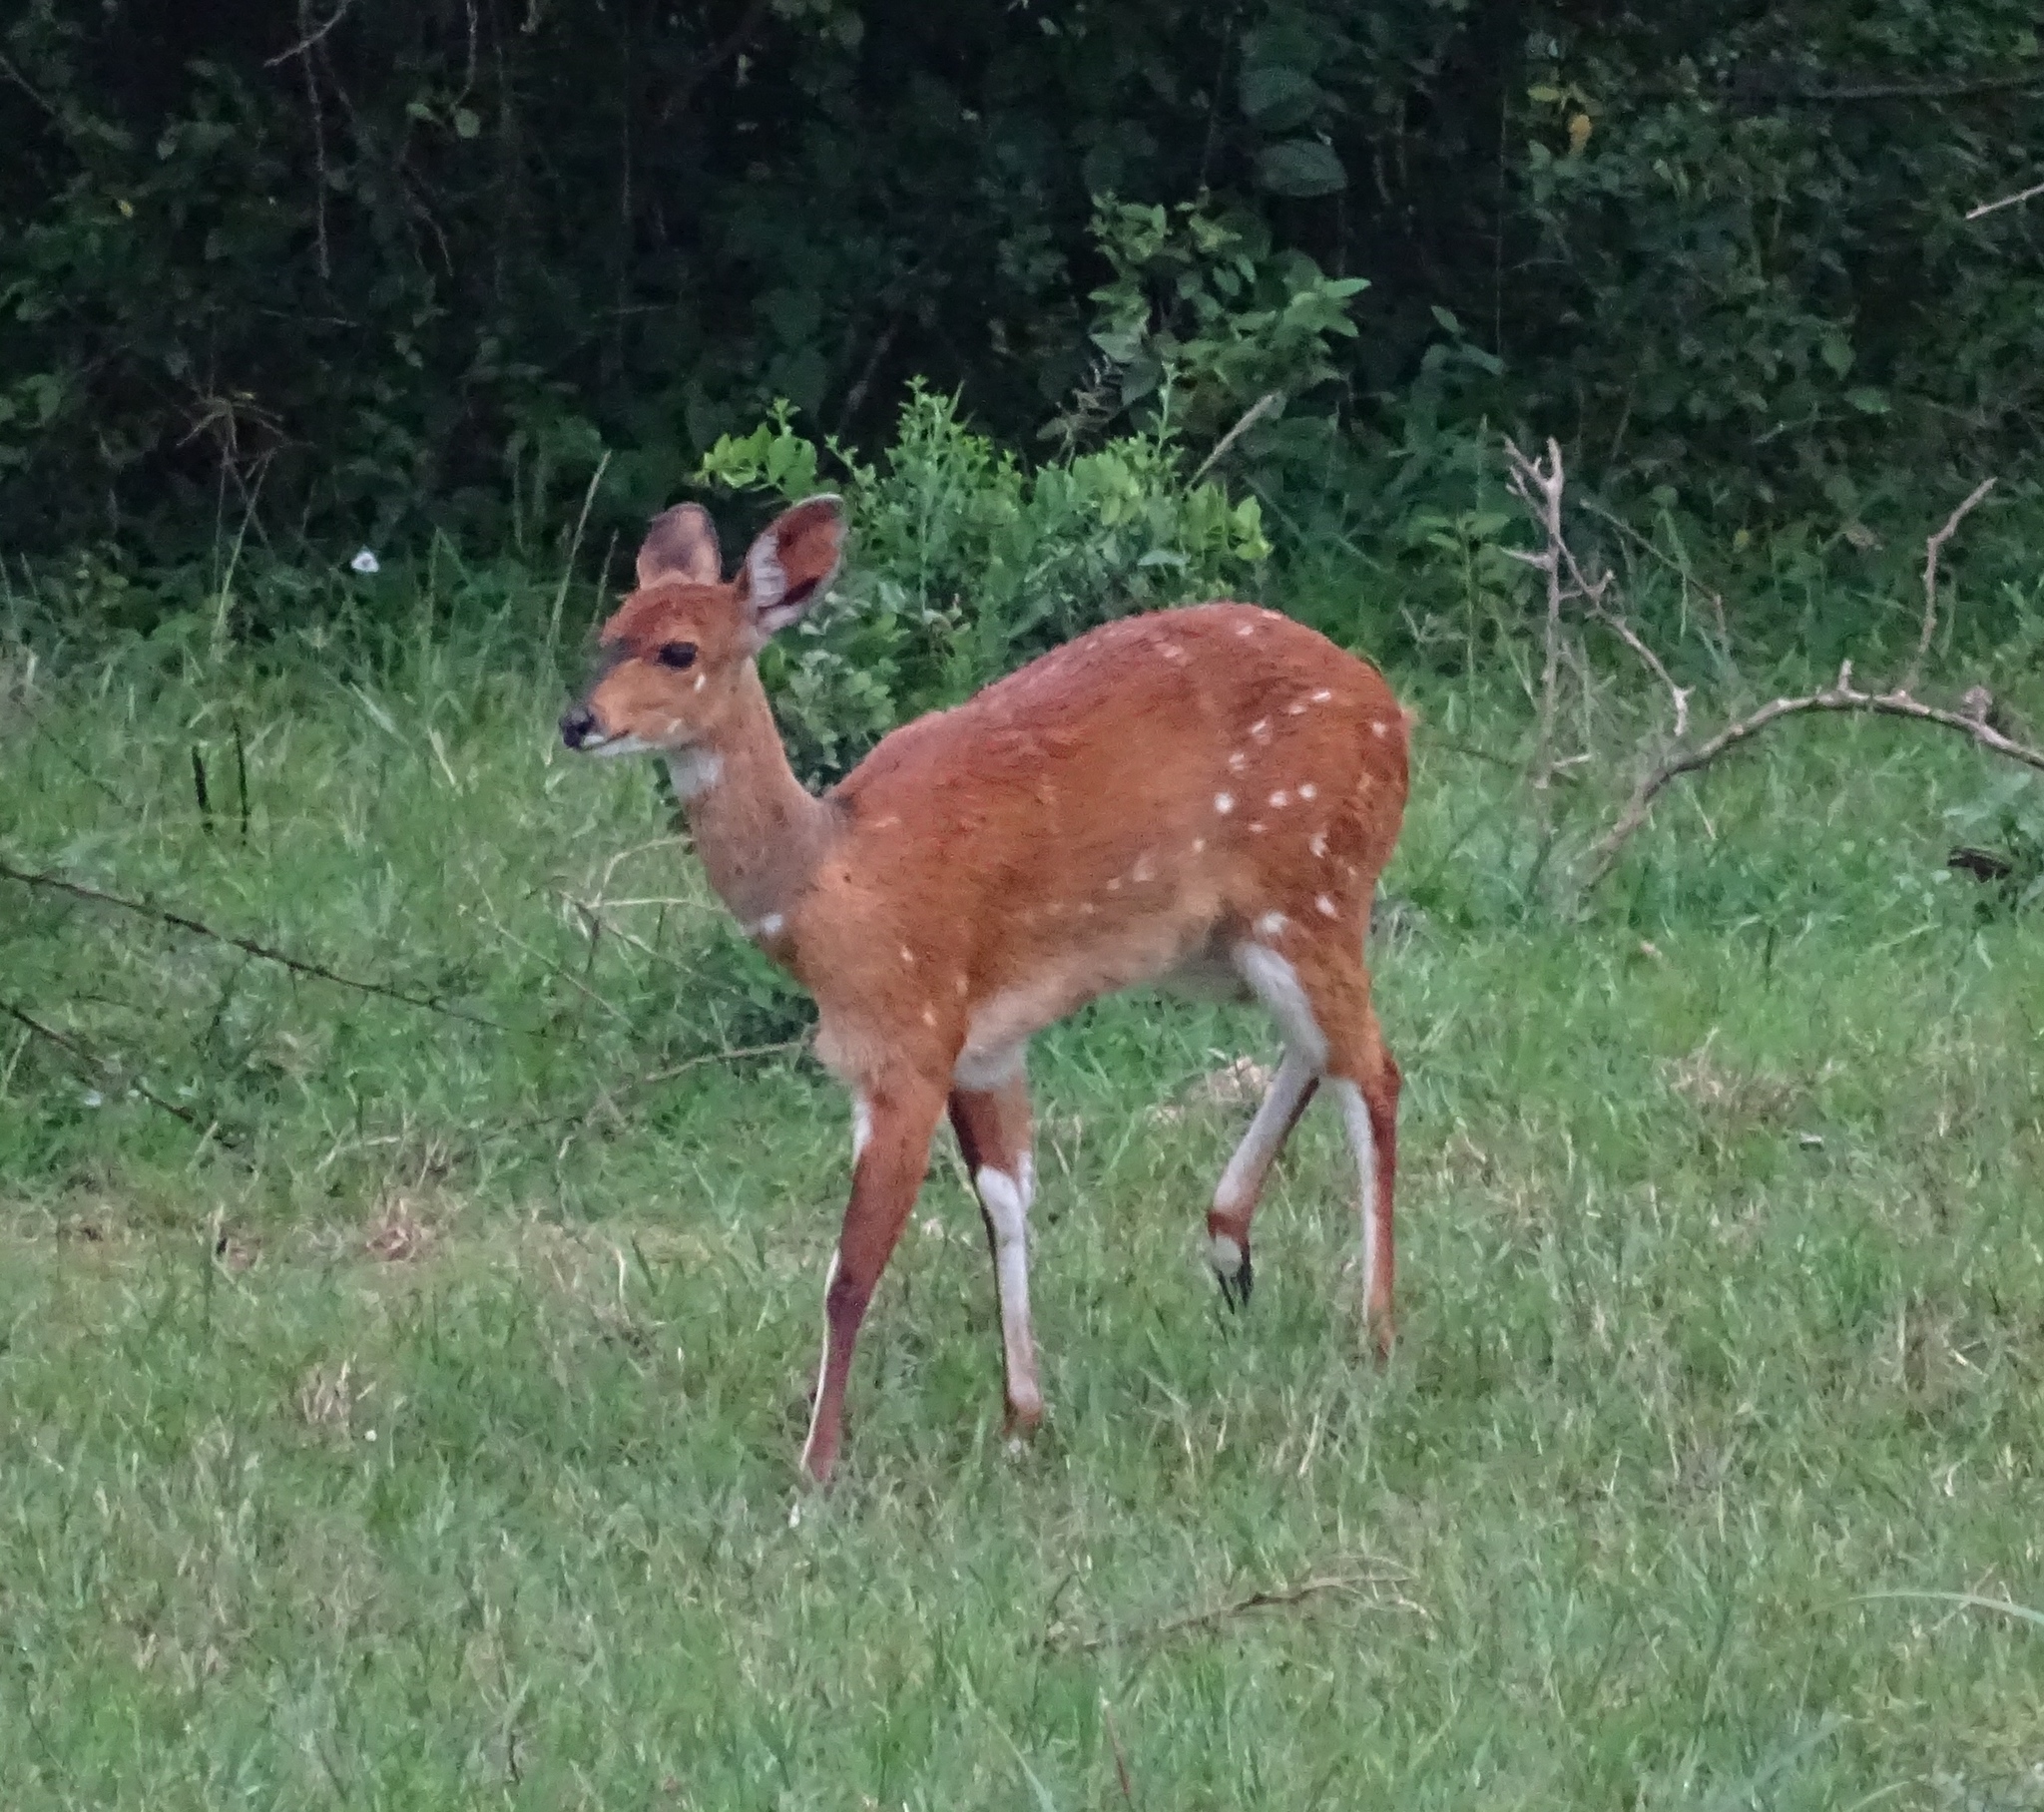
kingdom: Animalia
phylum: Chordata
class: Mammalia
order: Artiodactyla
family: Bovidae
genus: Tragelaphus
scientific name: Tragelaphus scriptus
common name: Bushbuck
